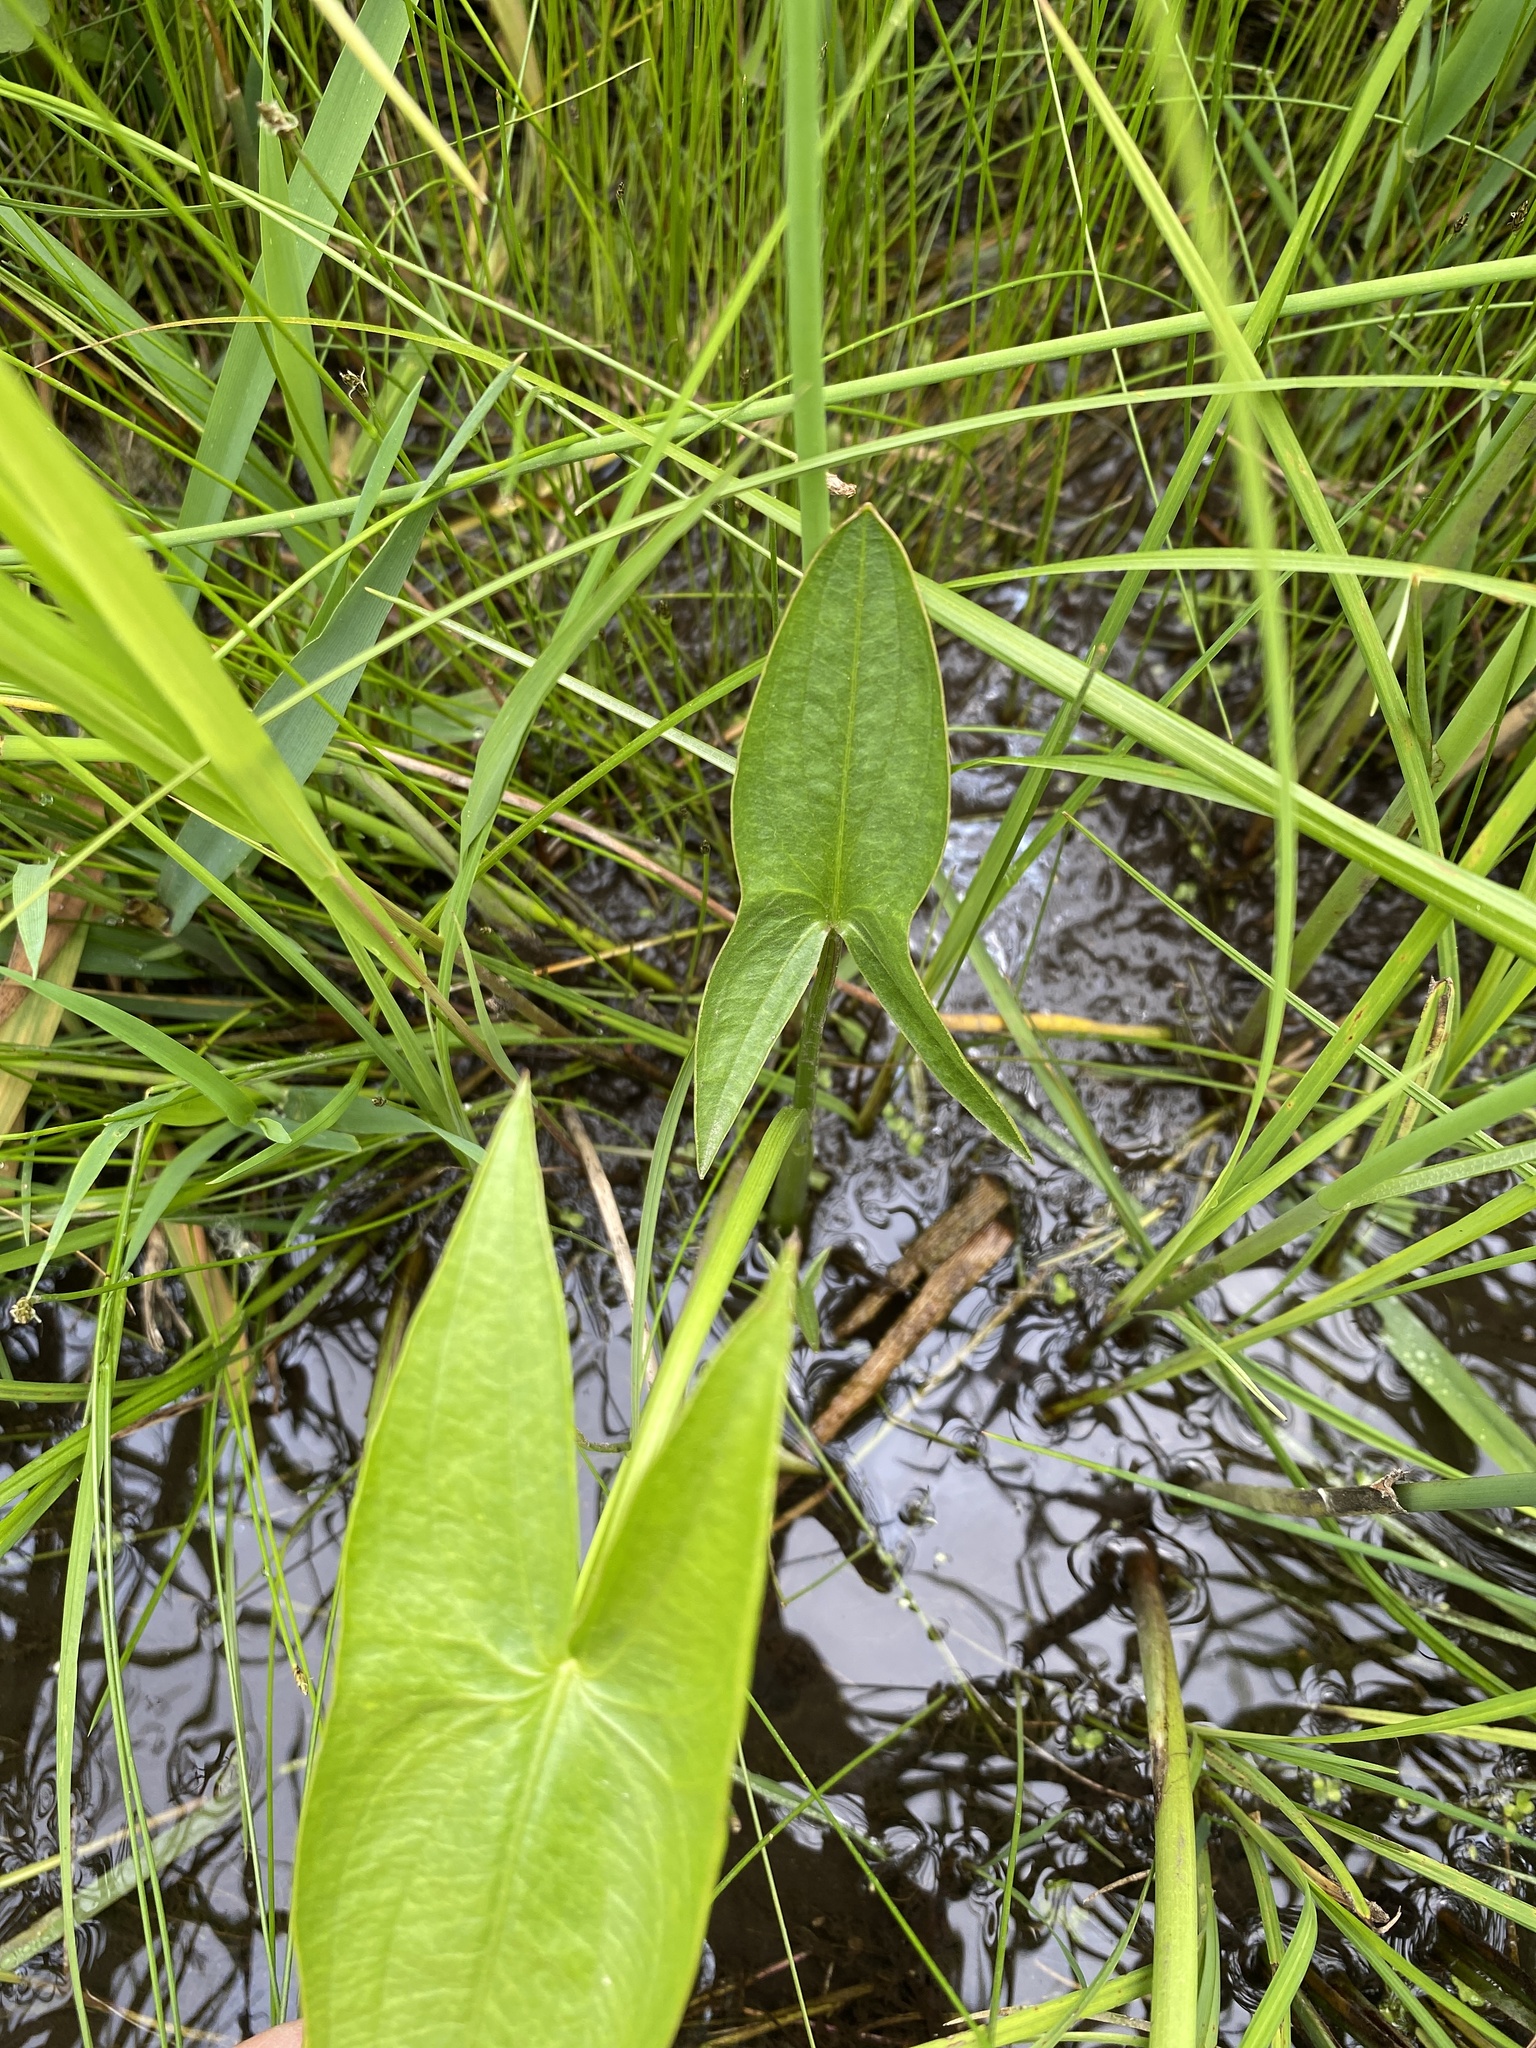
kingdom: Plantae
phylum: Tracheophyta
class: Liliopsida
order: Alismatales
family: Alismataceae
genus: Sagittaria
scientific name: Sagittaria
